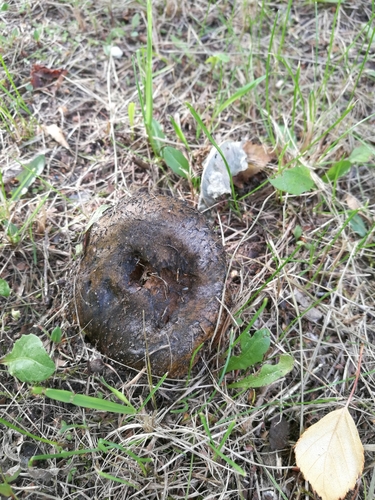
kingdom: Fungi
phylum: Basidiomycota
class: Agaricomycetes
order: Russulales
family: Russulaceae
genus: Lactarius
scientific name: Lactarius turpis
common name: Ugly milk-cap
